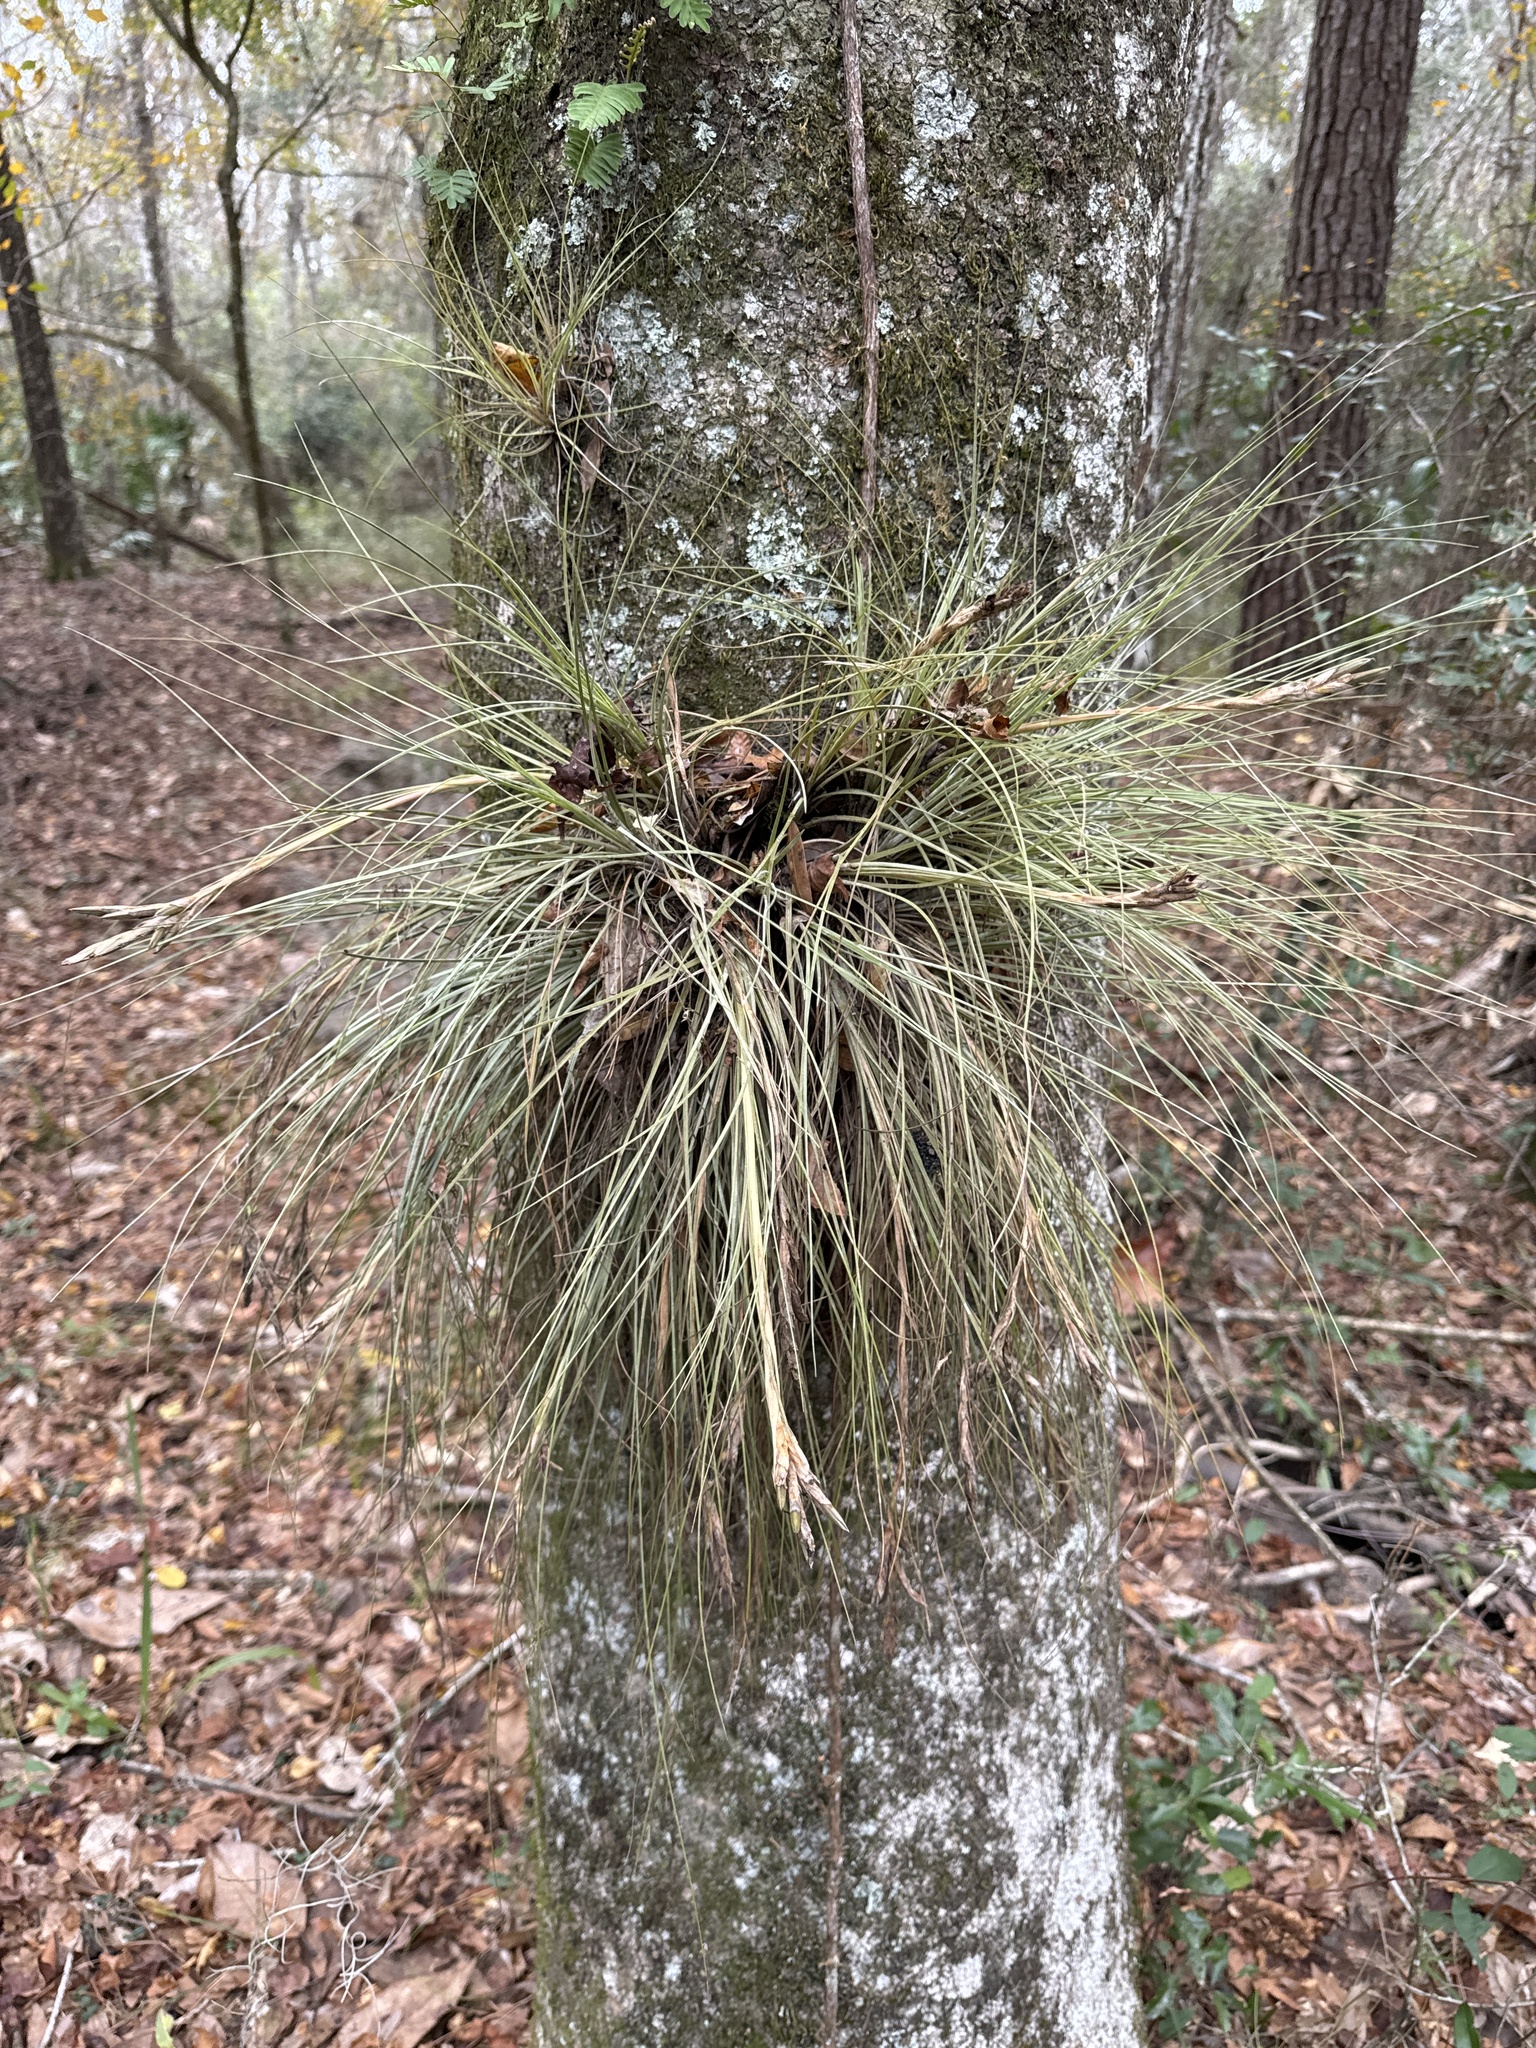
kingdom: Plantae
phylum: Tracheophyta
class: Liliopsida
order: Poales
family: Bromeliaceae
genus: Tillandsia
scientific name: Tillandsia bartramii
